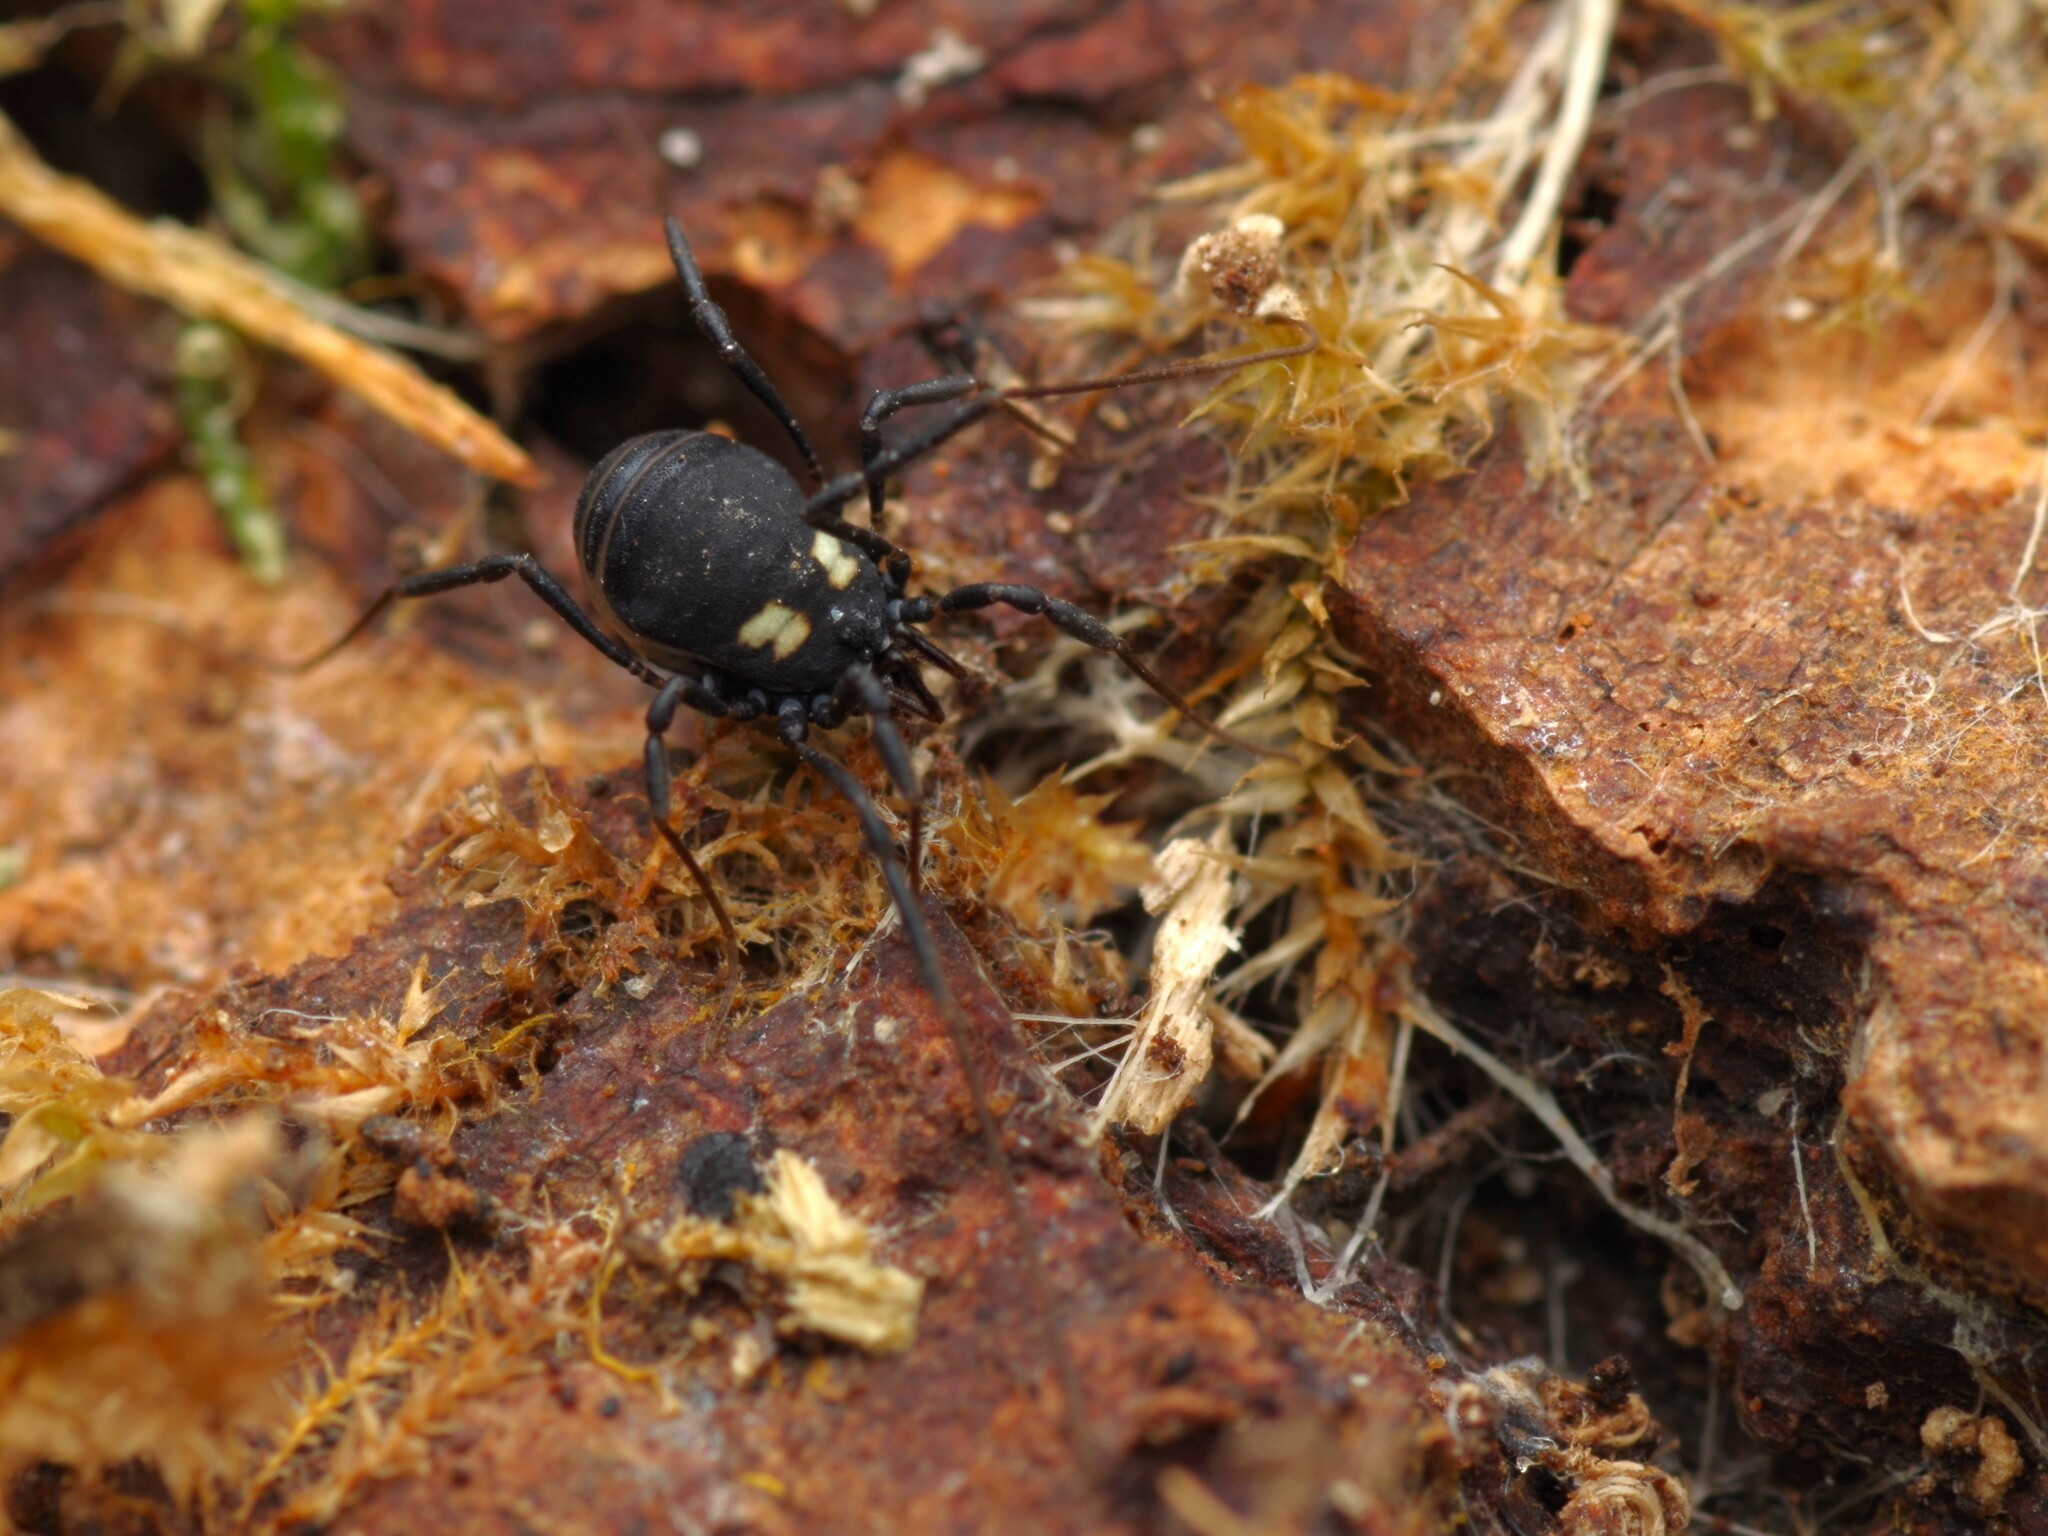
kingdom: Animalia
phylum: Arthropoda
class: Arachnida
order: Opiliones
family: Nemastomatidae
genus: Nemastoma
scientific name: Nemastoma bimaculatum
